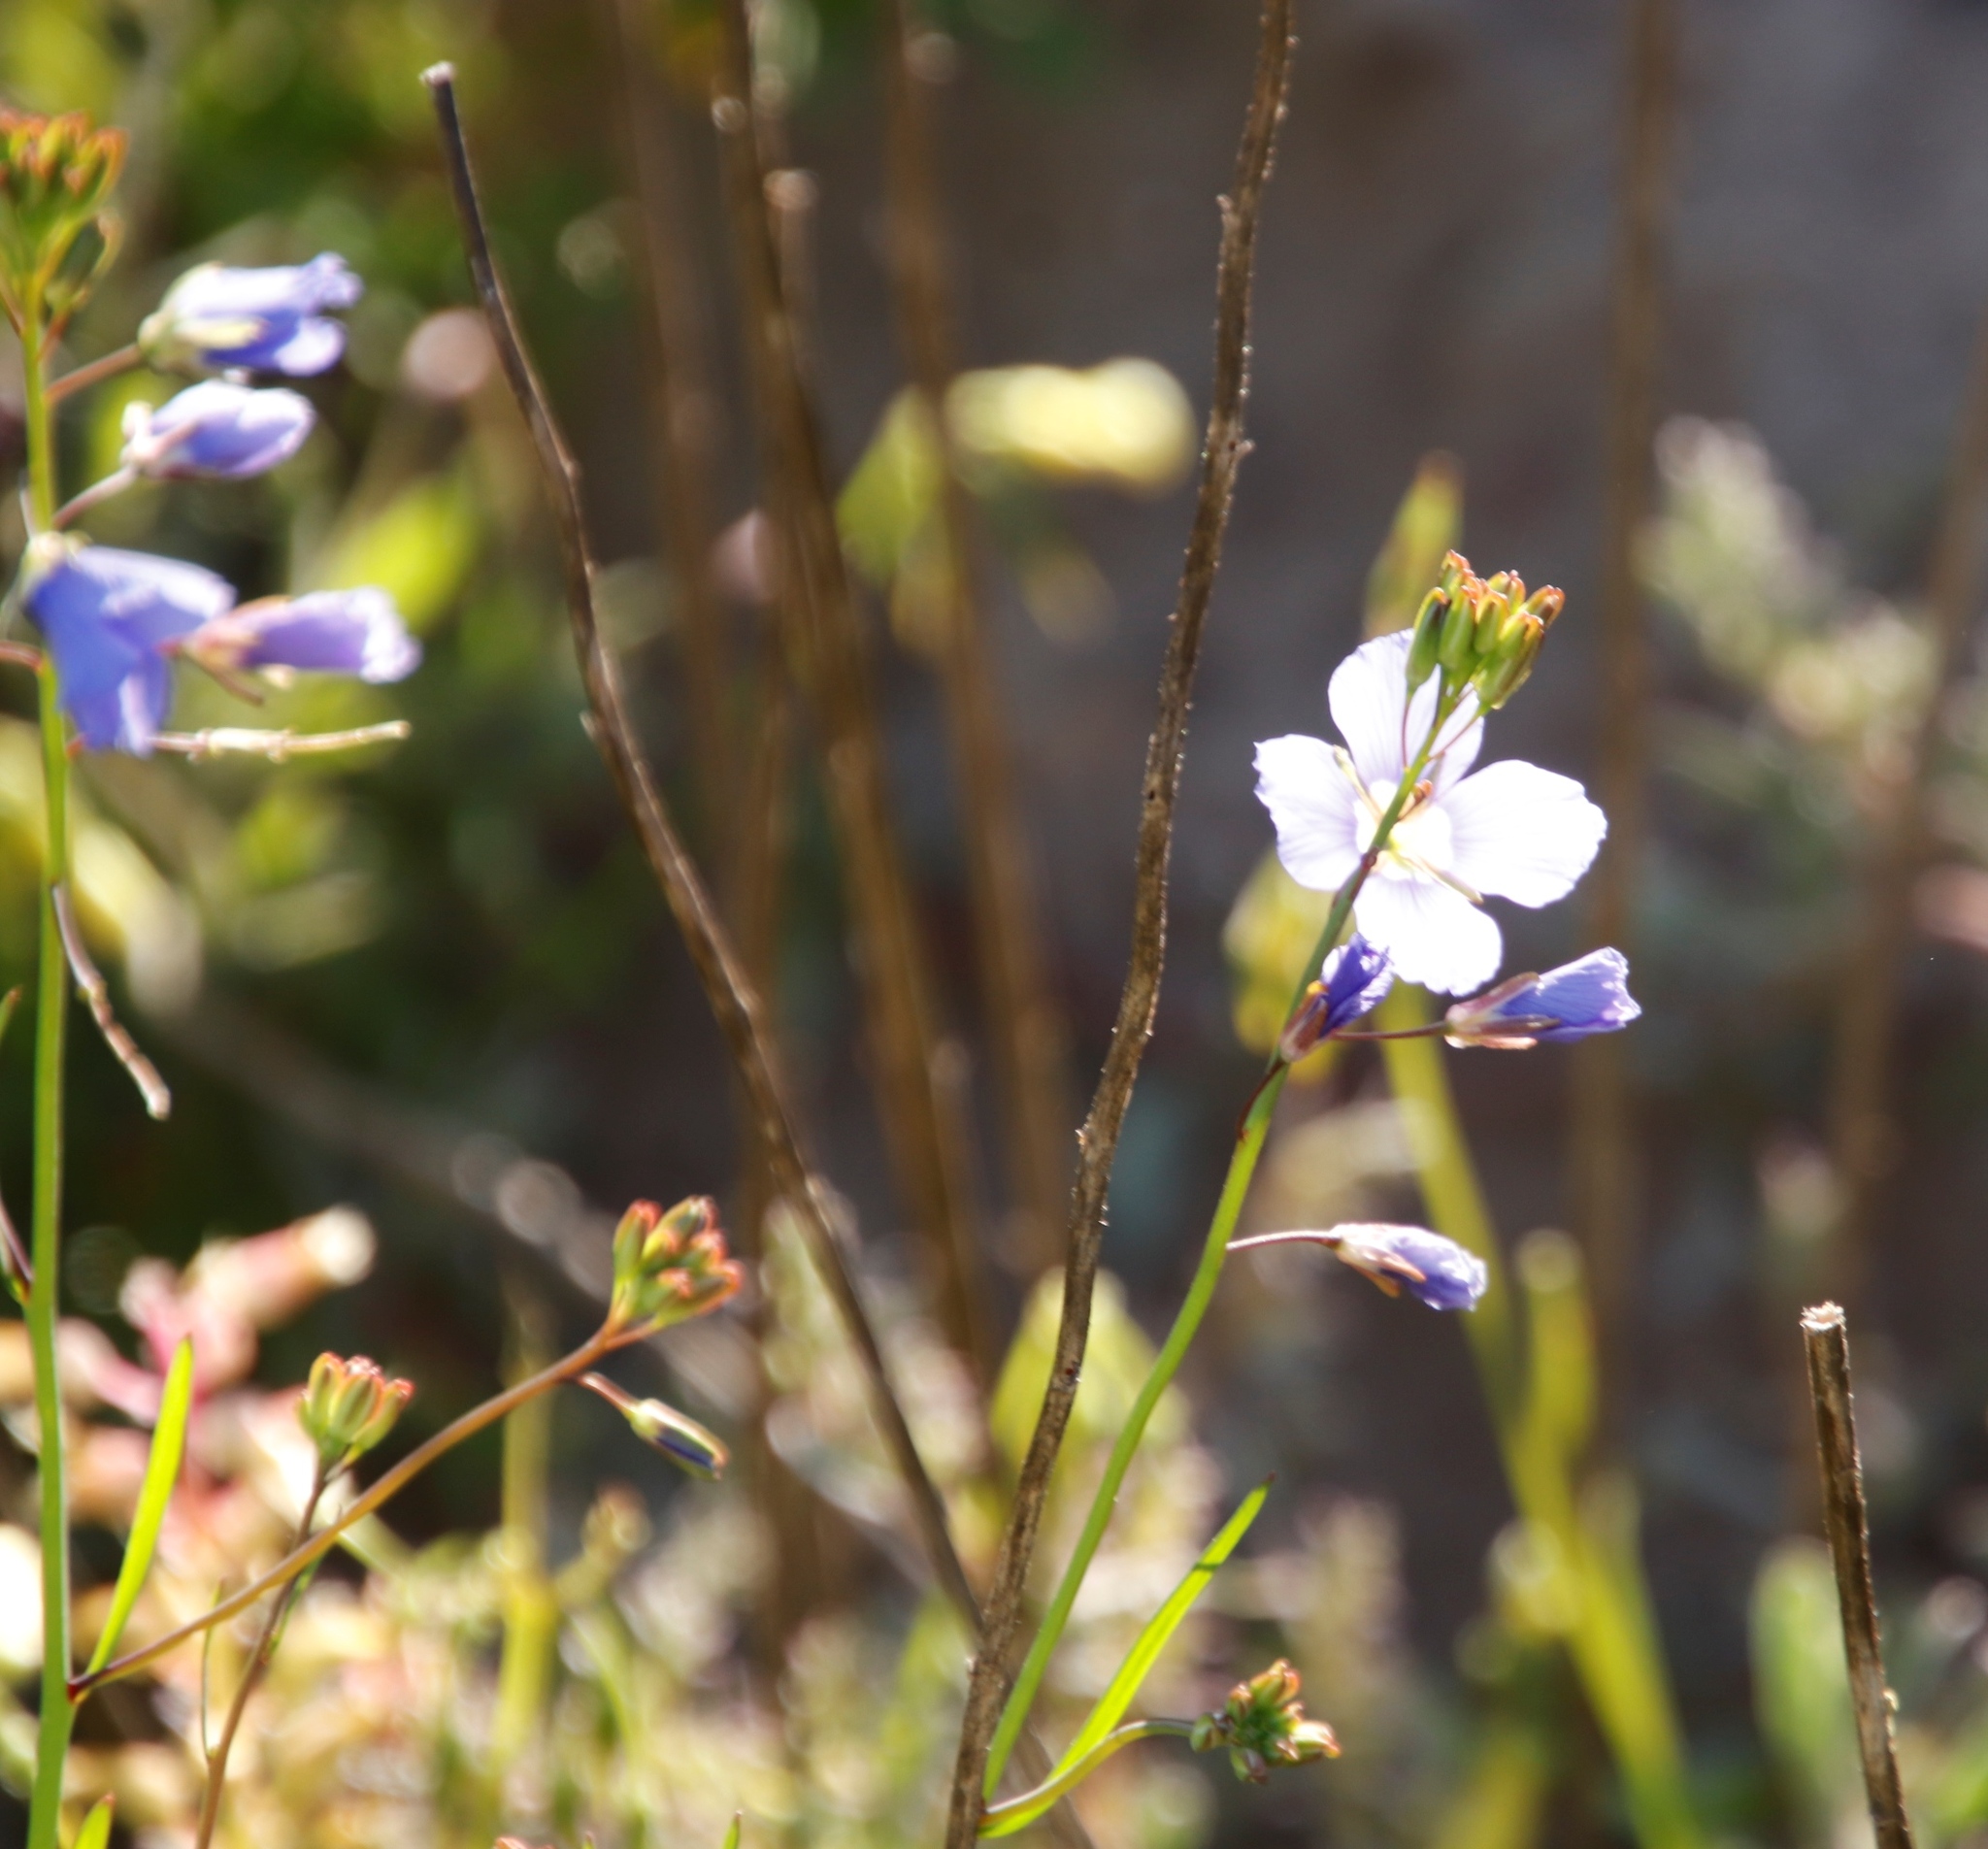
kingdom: Plantae
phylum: Tracheophyta
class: Magnoliopsida
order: Brassicales
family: Brassicaceae
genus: Heliophila
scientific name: Heliophila coronopifolia
